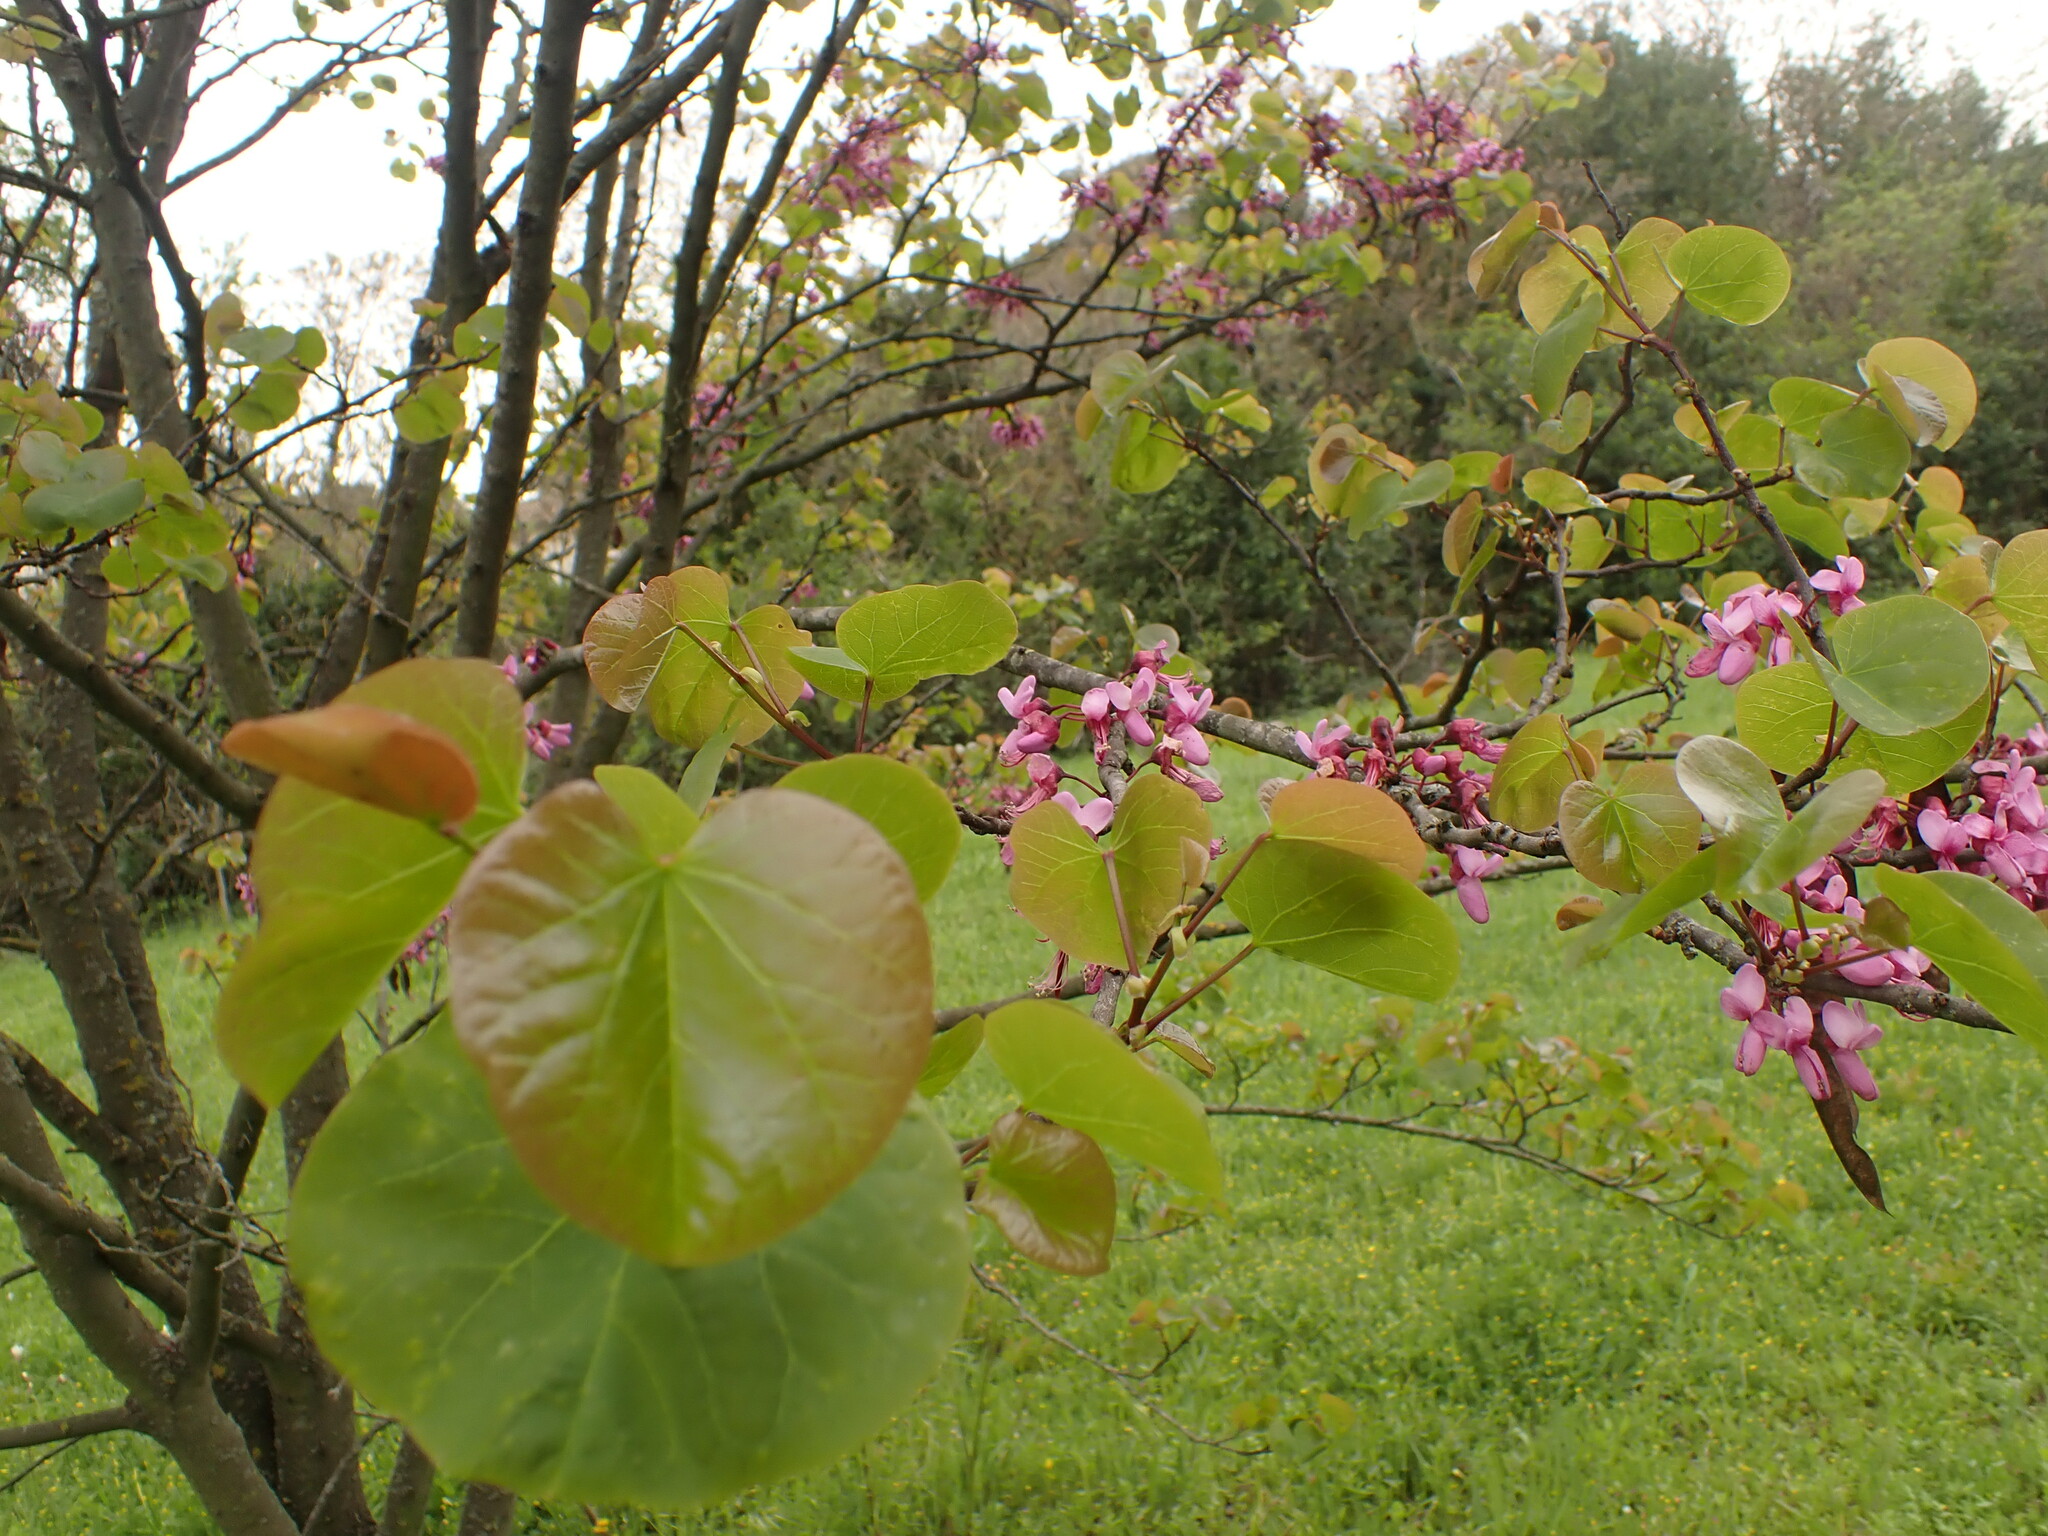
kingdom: Plantae
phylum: Tracheophyta
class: Magnoliopsida
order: Fabales
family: Fabaceae
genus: Cercis
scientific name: Cercis siliquastrum
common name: Judas tree
